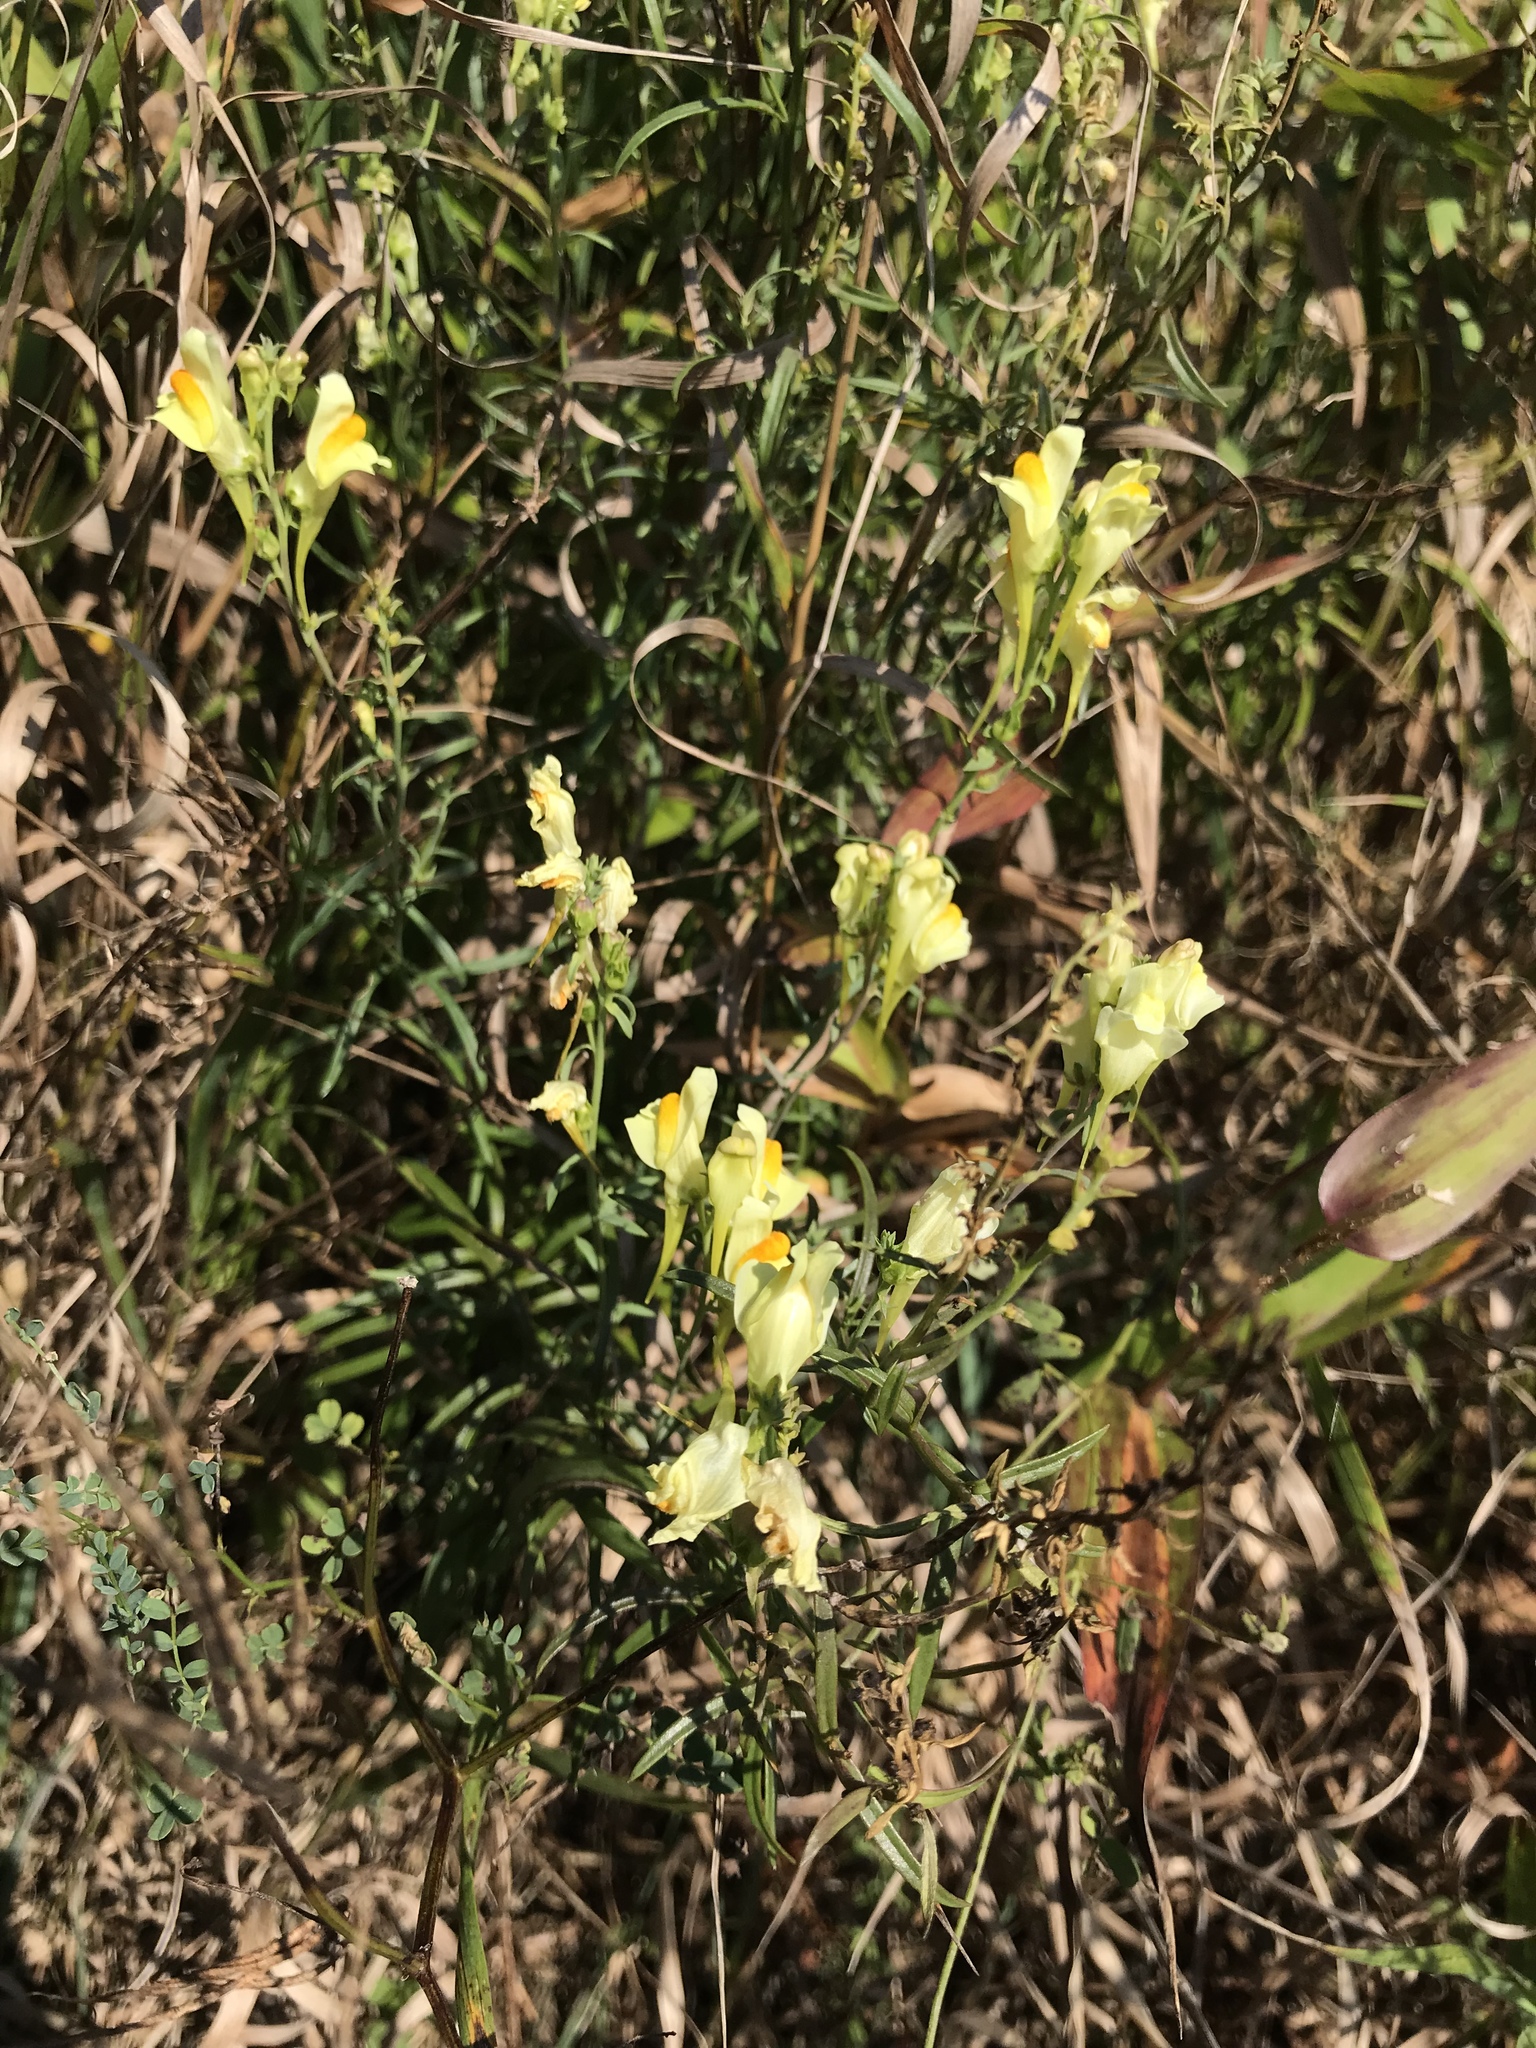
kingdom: Plantae
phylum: Tracheophyta
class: Magnoliopsida
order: Lamiales
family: Plantaginaceae
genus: Linaria
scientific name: Linaria vulgaris
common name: Butter and eggs
